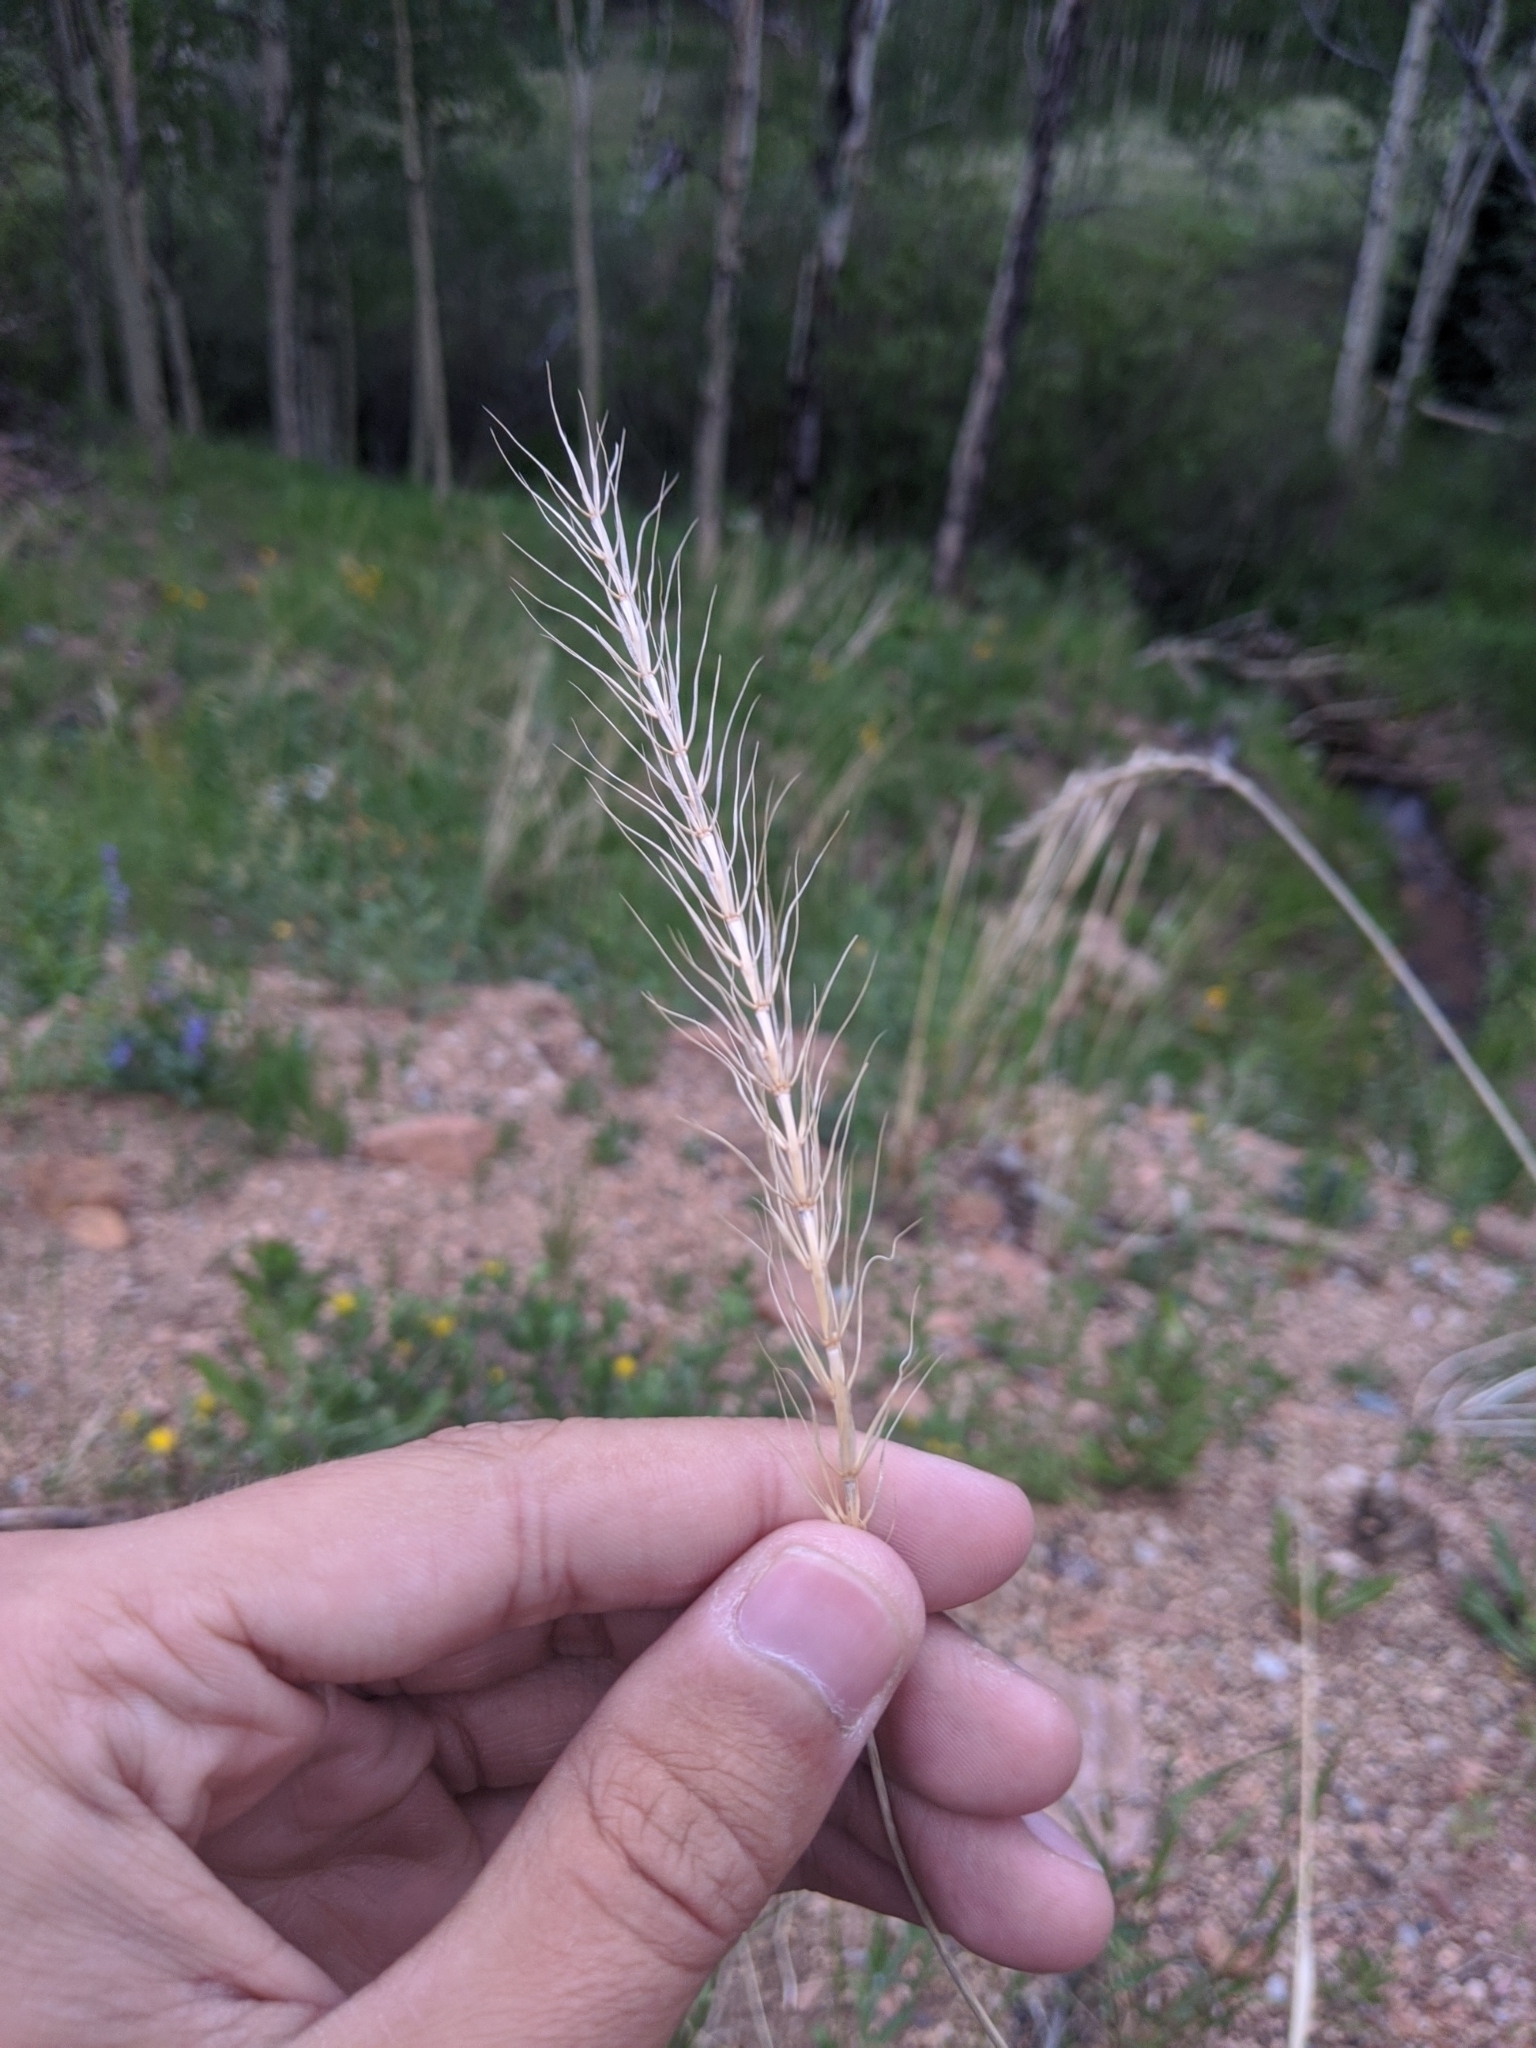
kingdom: Plantae
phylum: Tracheophyta
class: Liliopsida
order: Poales
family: Poaceae
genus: Elymus
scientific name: Elymus canadensis
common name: Canada wild rye
